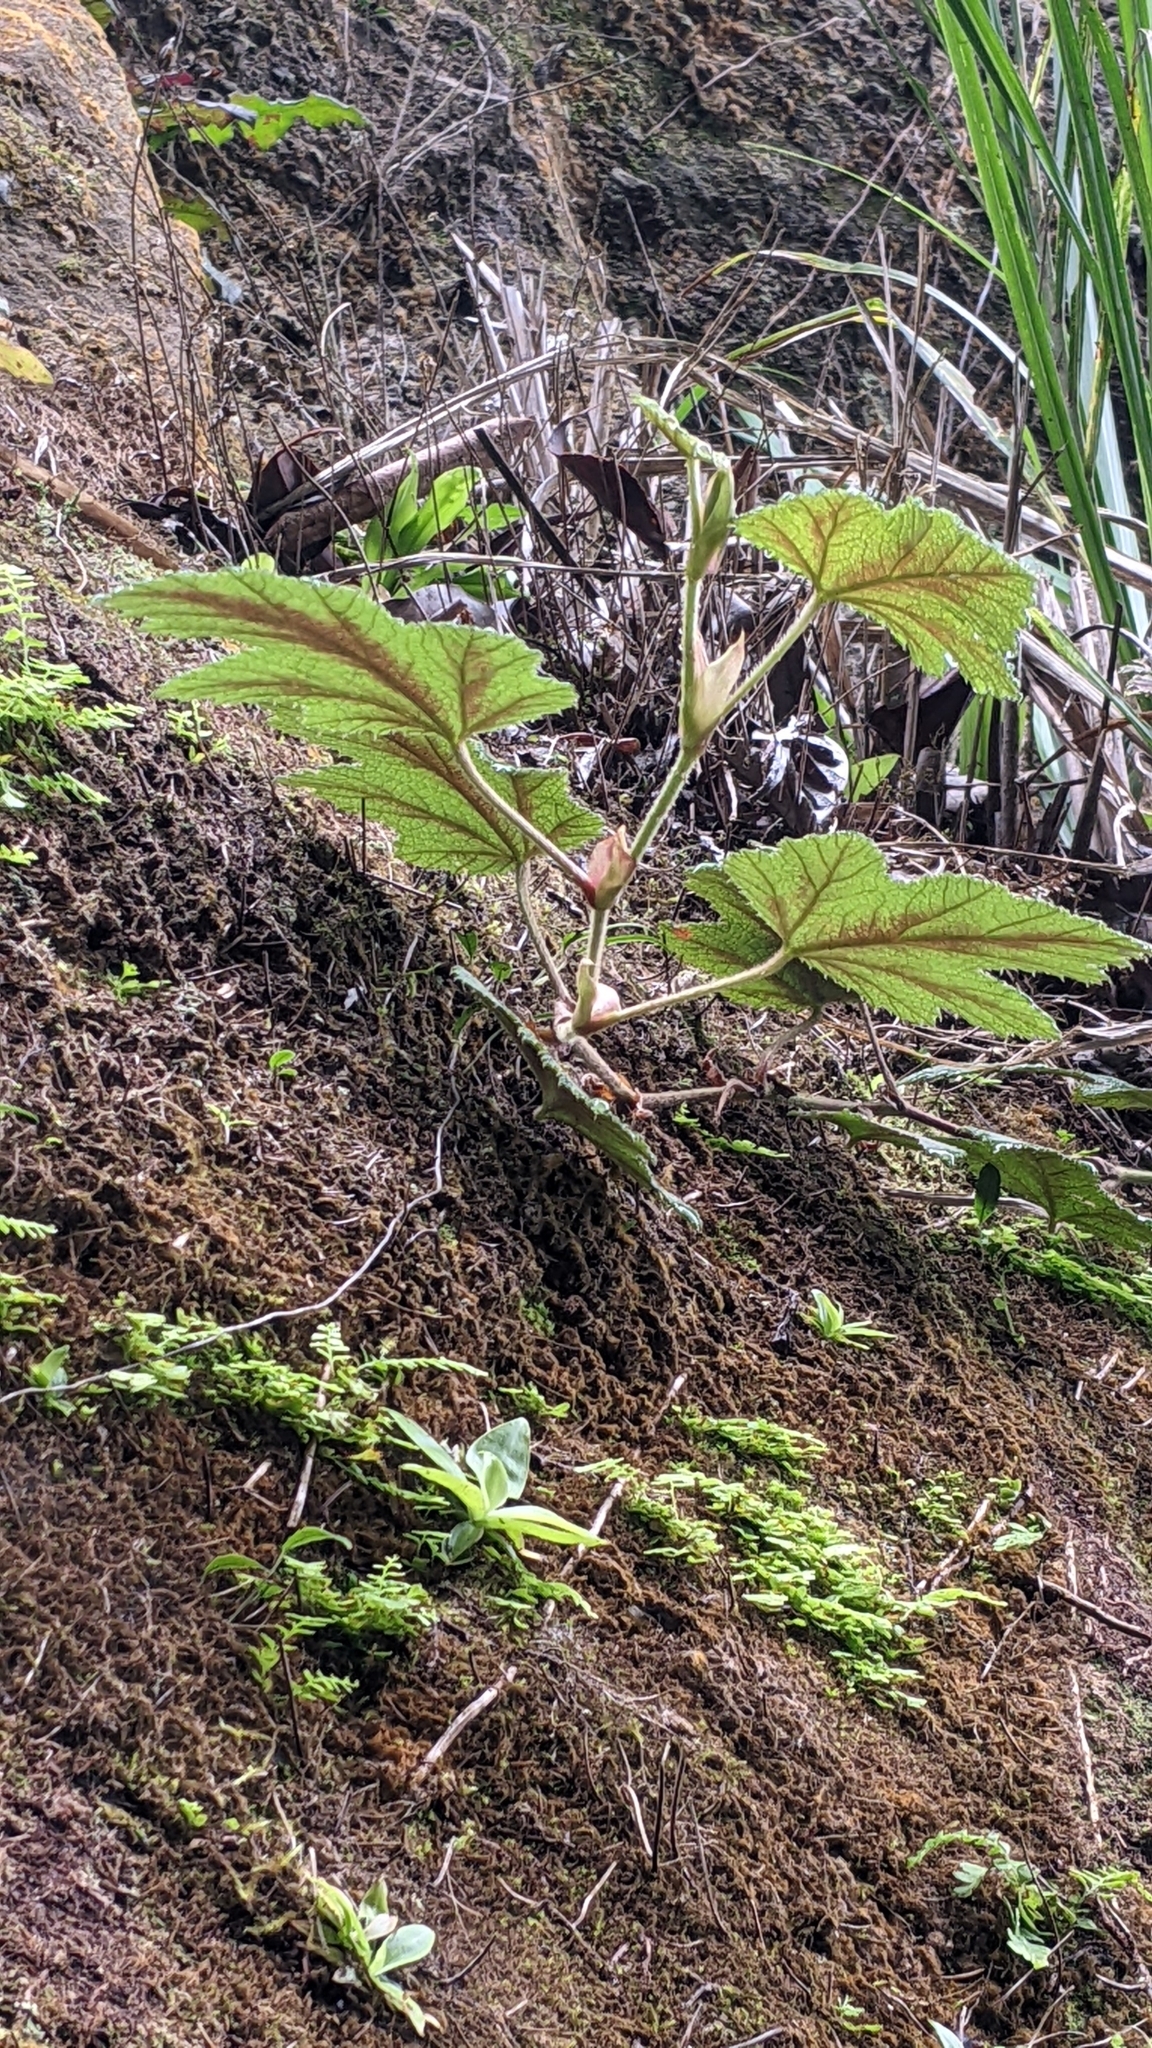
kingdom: Plantae
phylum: Tracheophyta
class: Magnoliopsida
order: Rosales
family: Rosaceae
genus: Rubus
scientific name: Rubus formosensis
